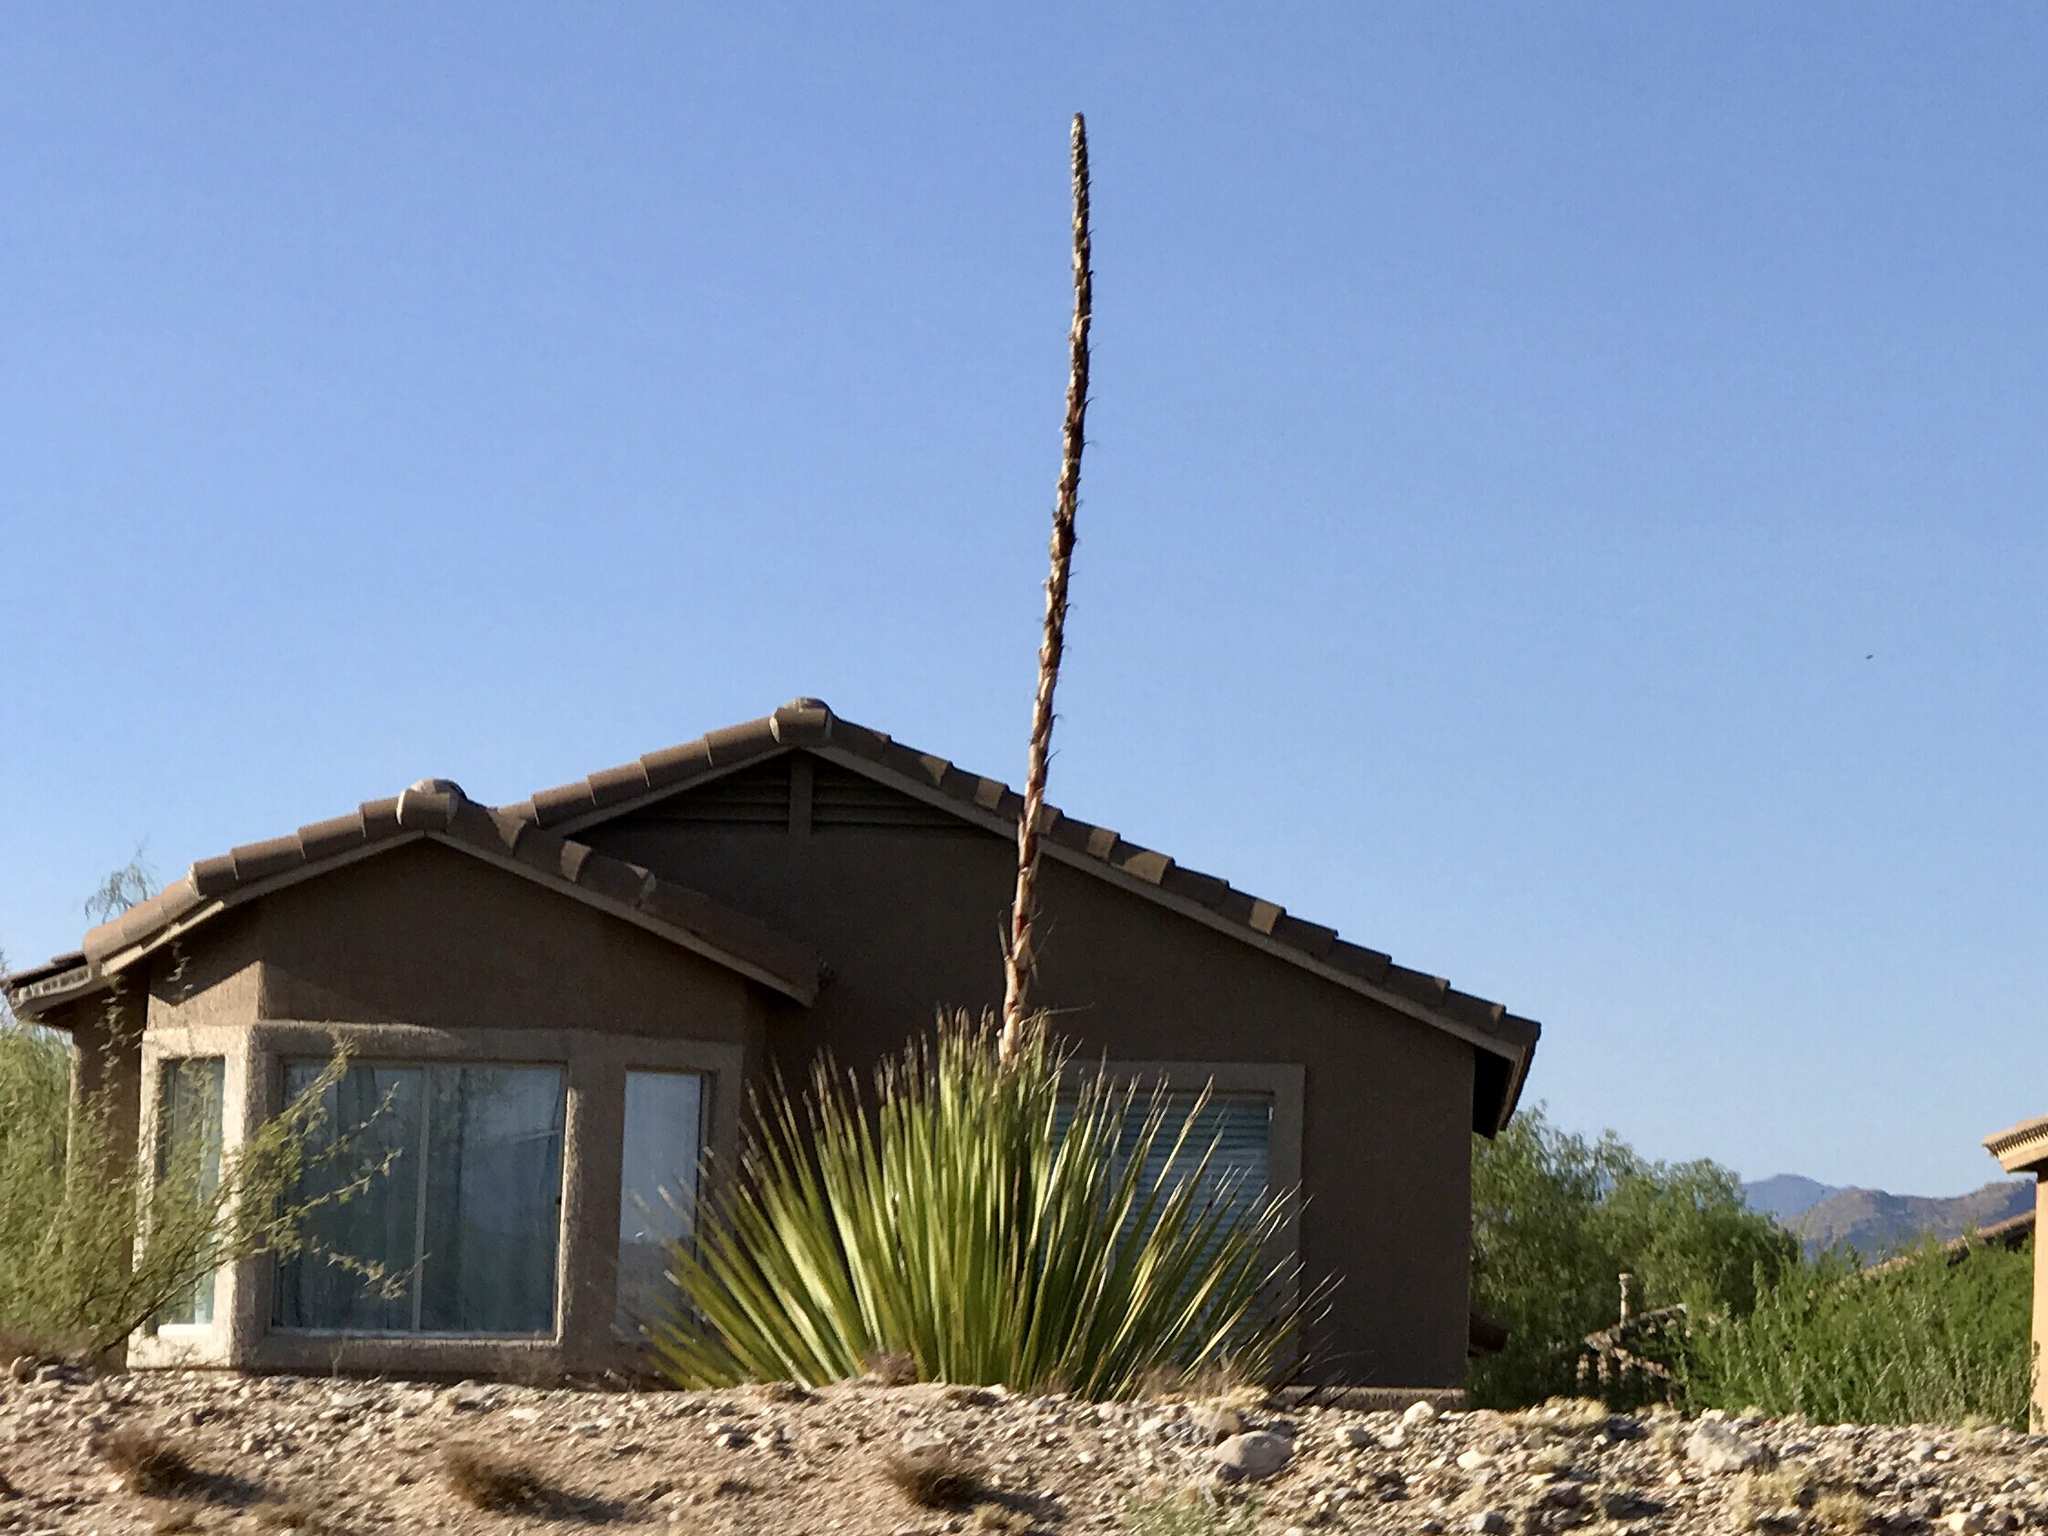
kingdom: Plantae
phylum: Tracheophyta
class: Liliopsida
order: Asparagales
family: Asparagaceae
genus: Dasylirion
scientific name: Dasylirion wheeleri
